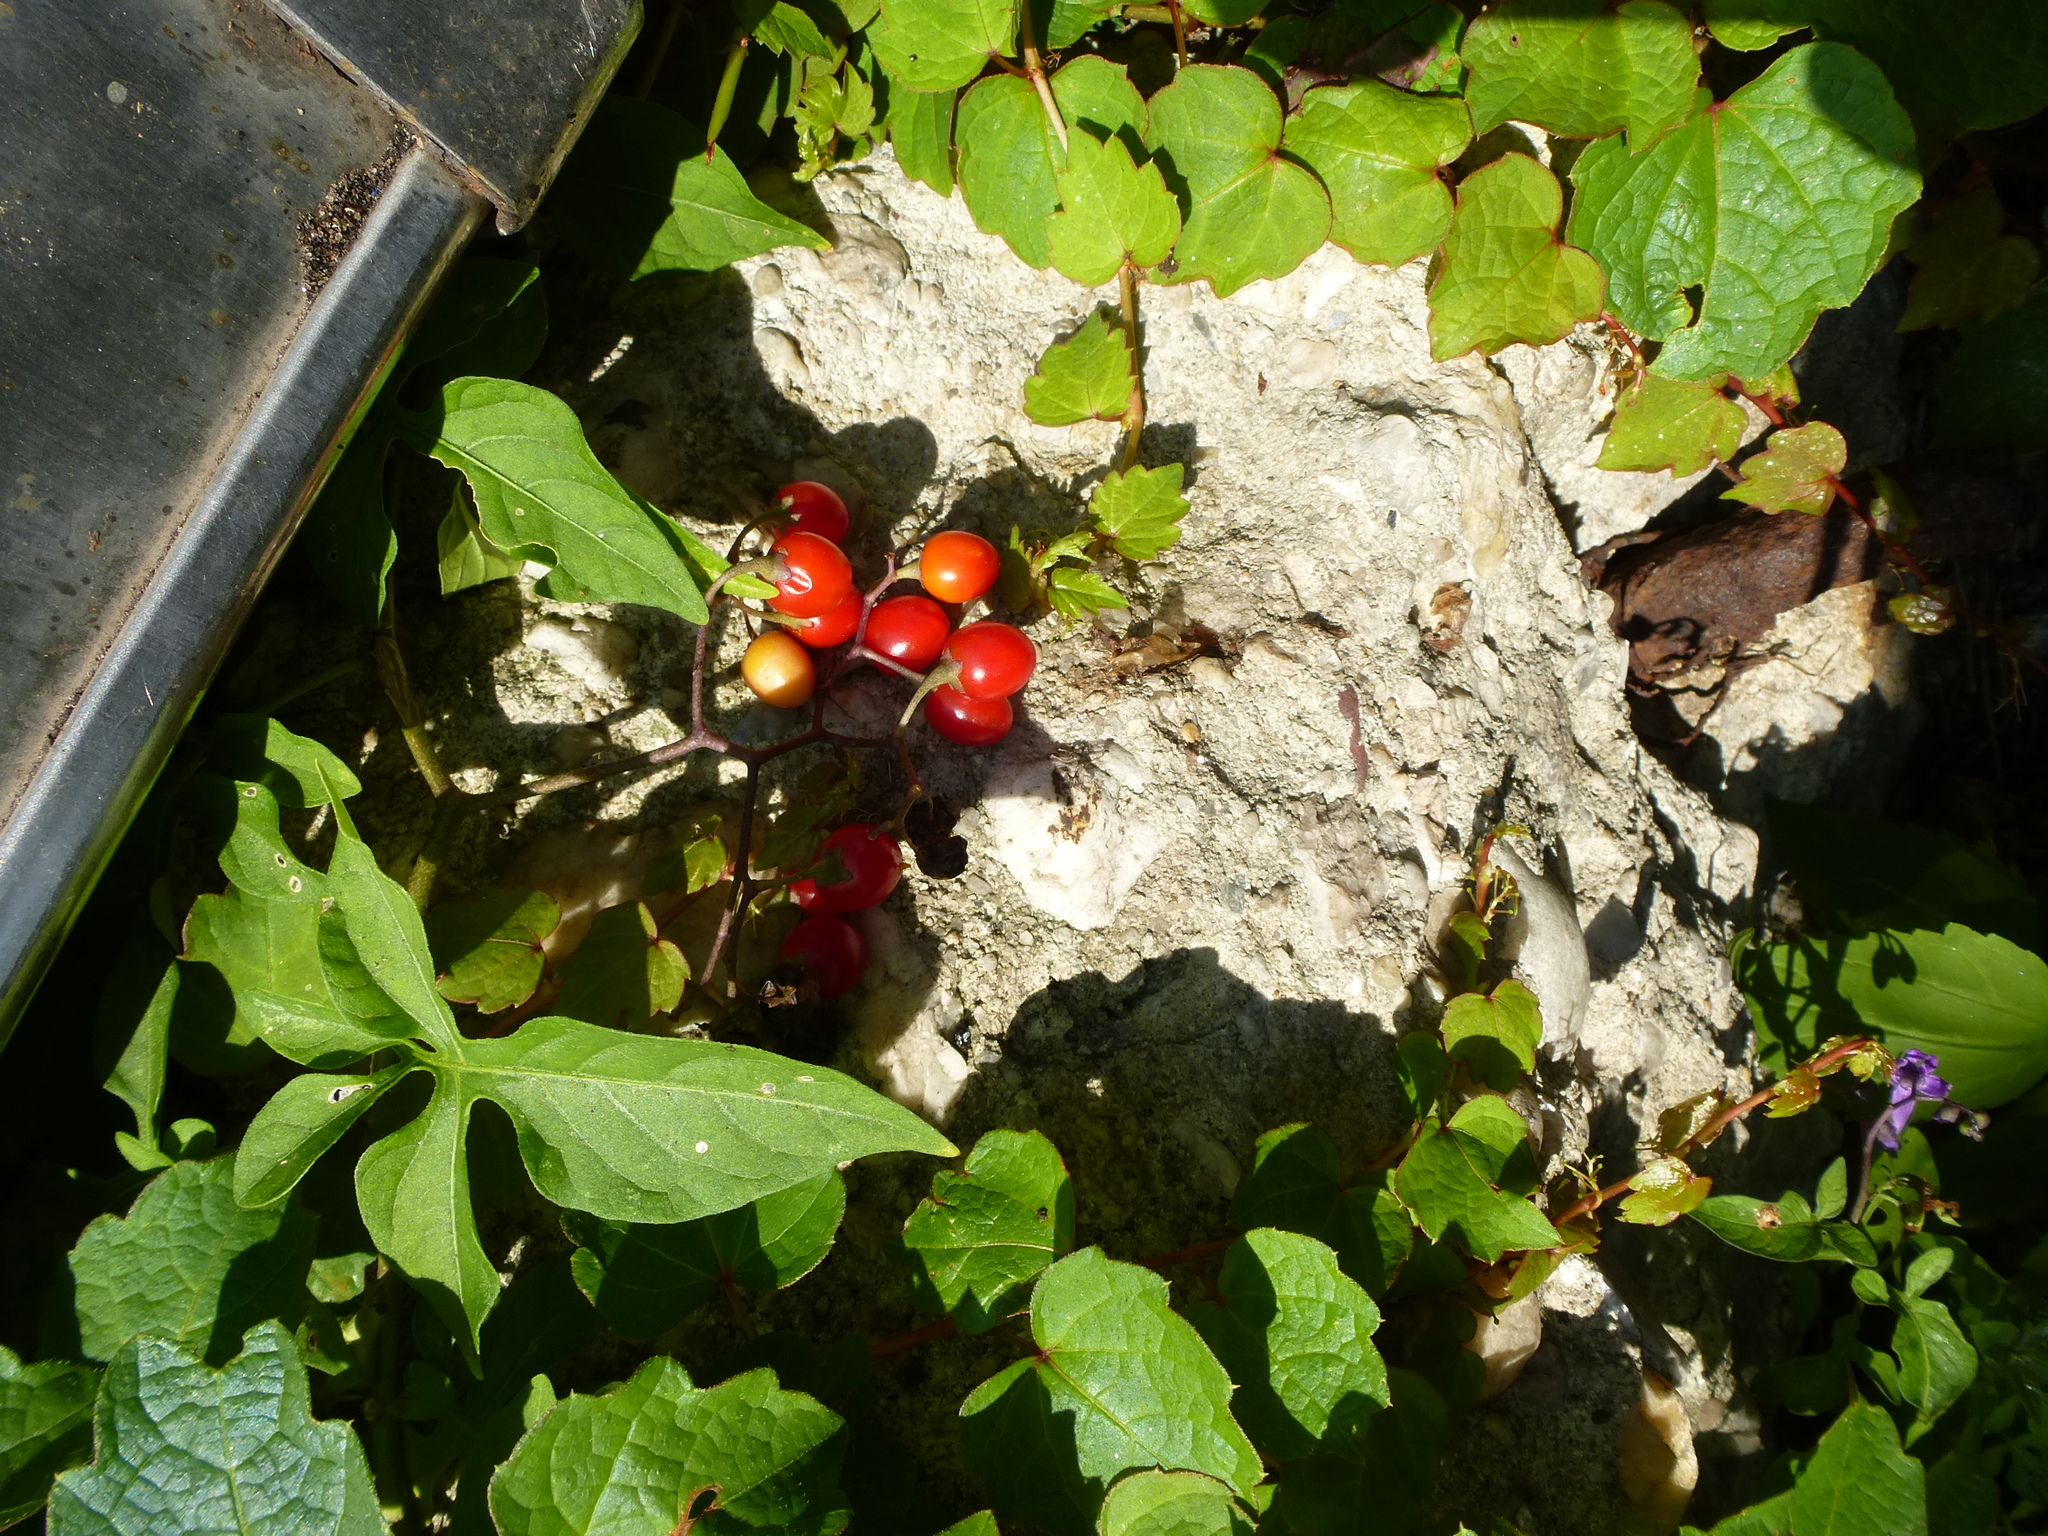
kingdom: Plantae
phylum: Tracheophyta
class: Magnoliopsida
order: Solanales
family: Solanaceae
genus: Solanum
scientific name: Solanum dulcamara
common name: Climbing nightshade
